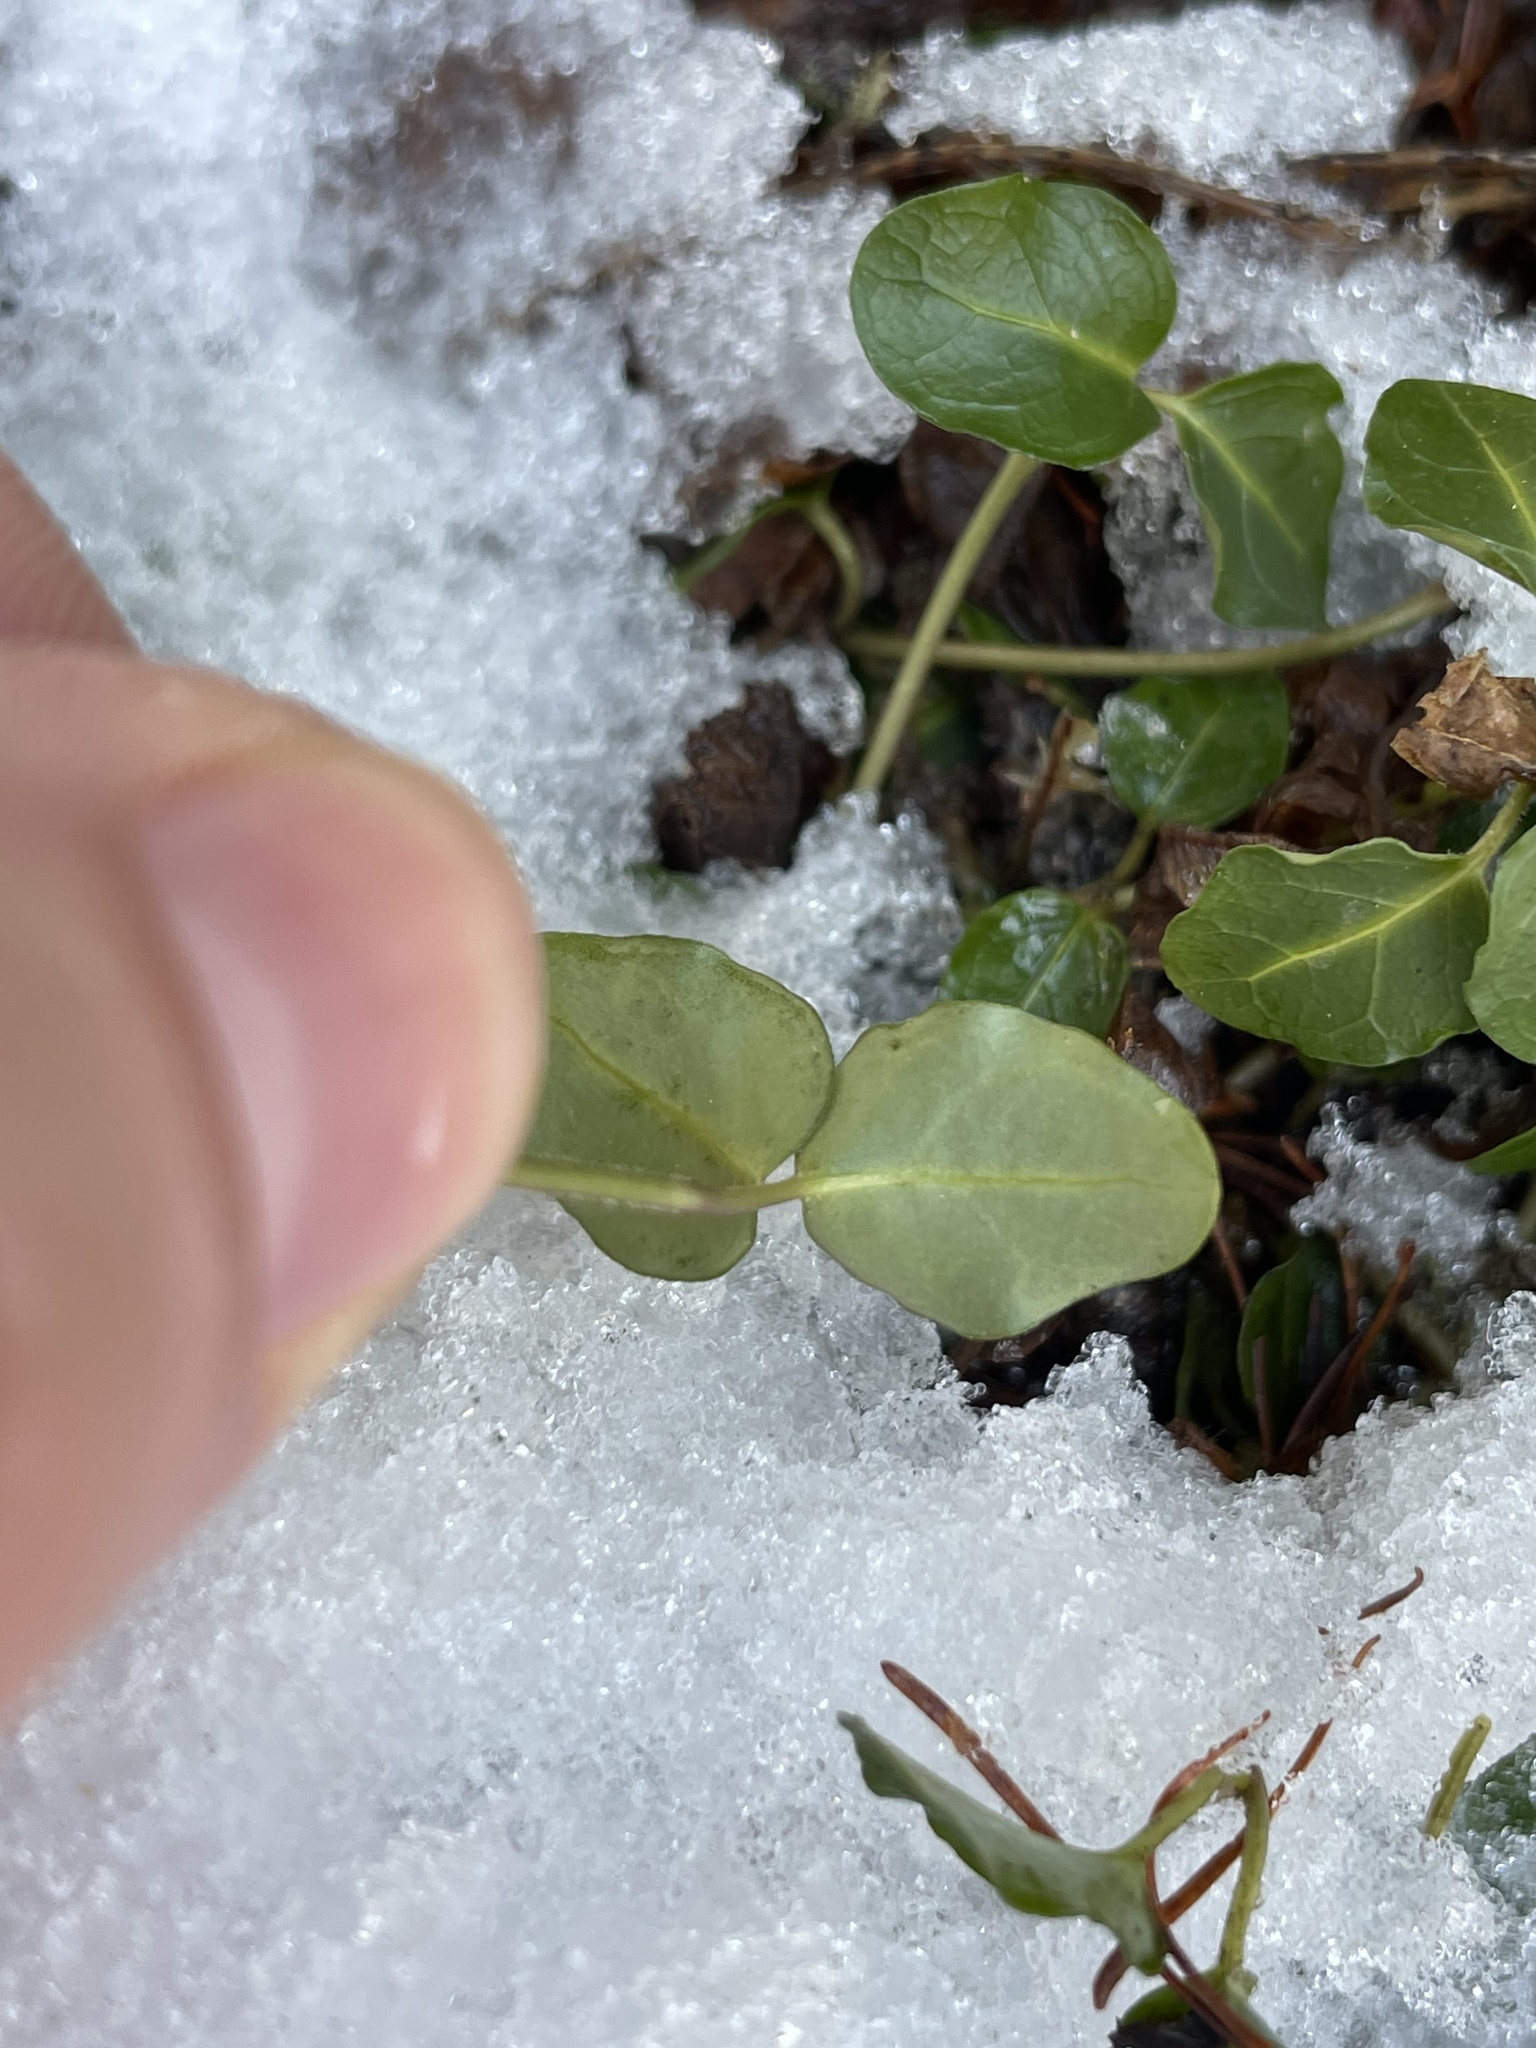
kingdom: Plantae
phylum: Tracheophyta
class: Magnoliopsida
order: Gentianales
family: Rubiaceae
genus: Mitchella
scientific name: Mitchella repens
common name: Partridge-berry
